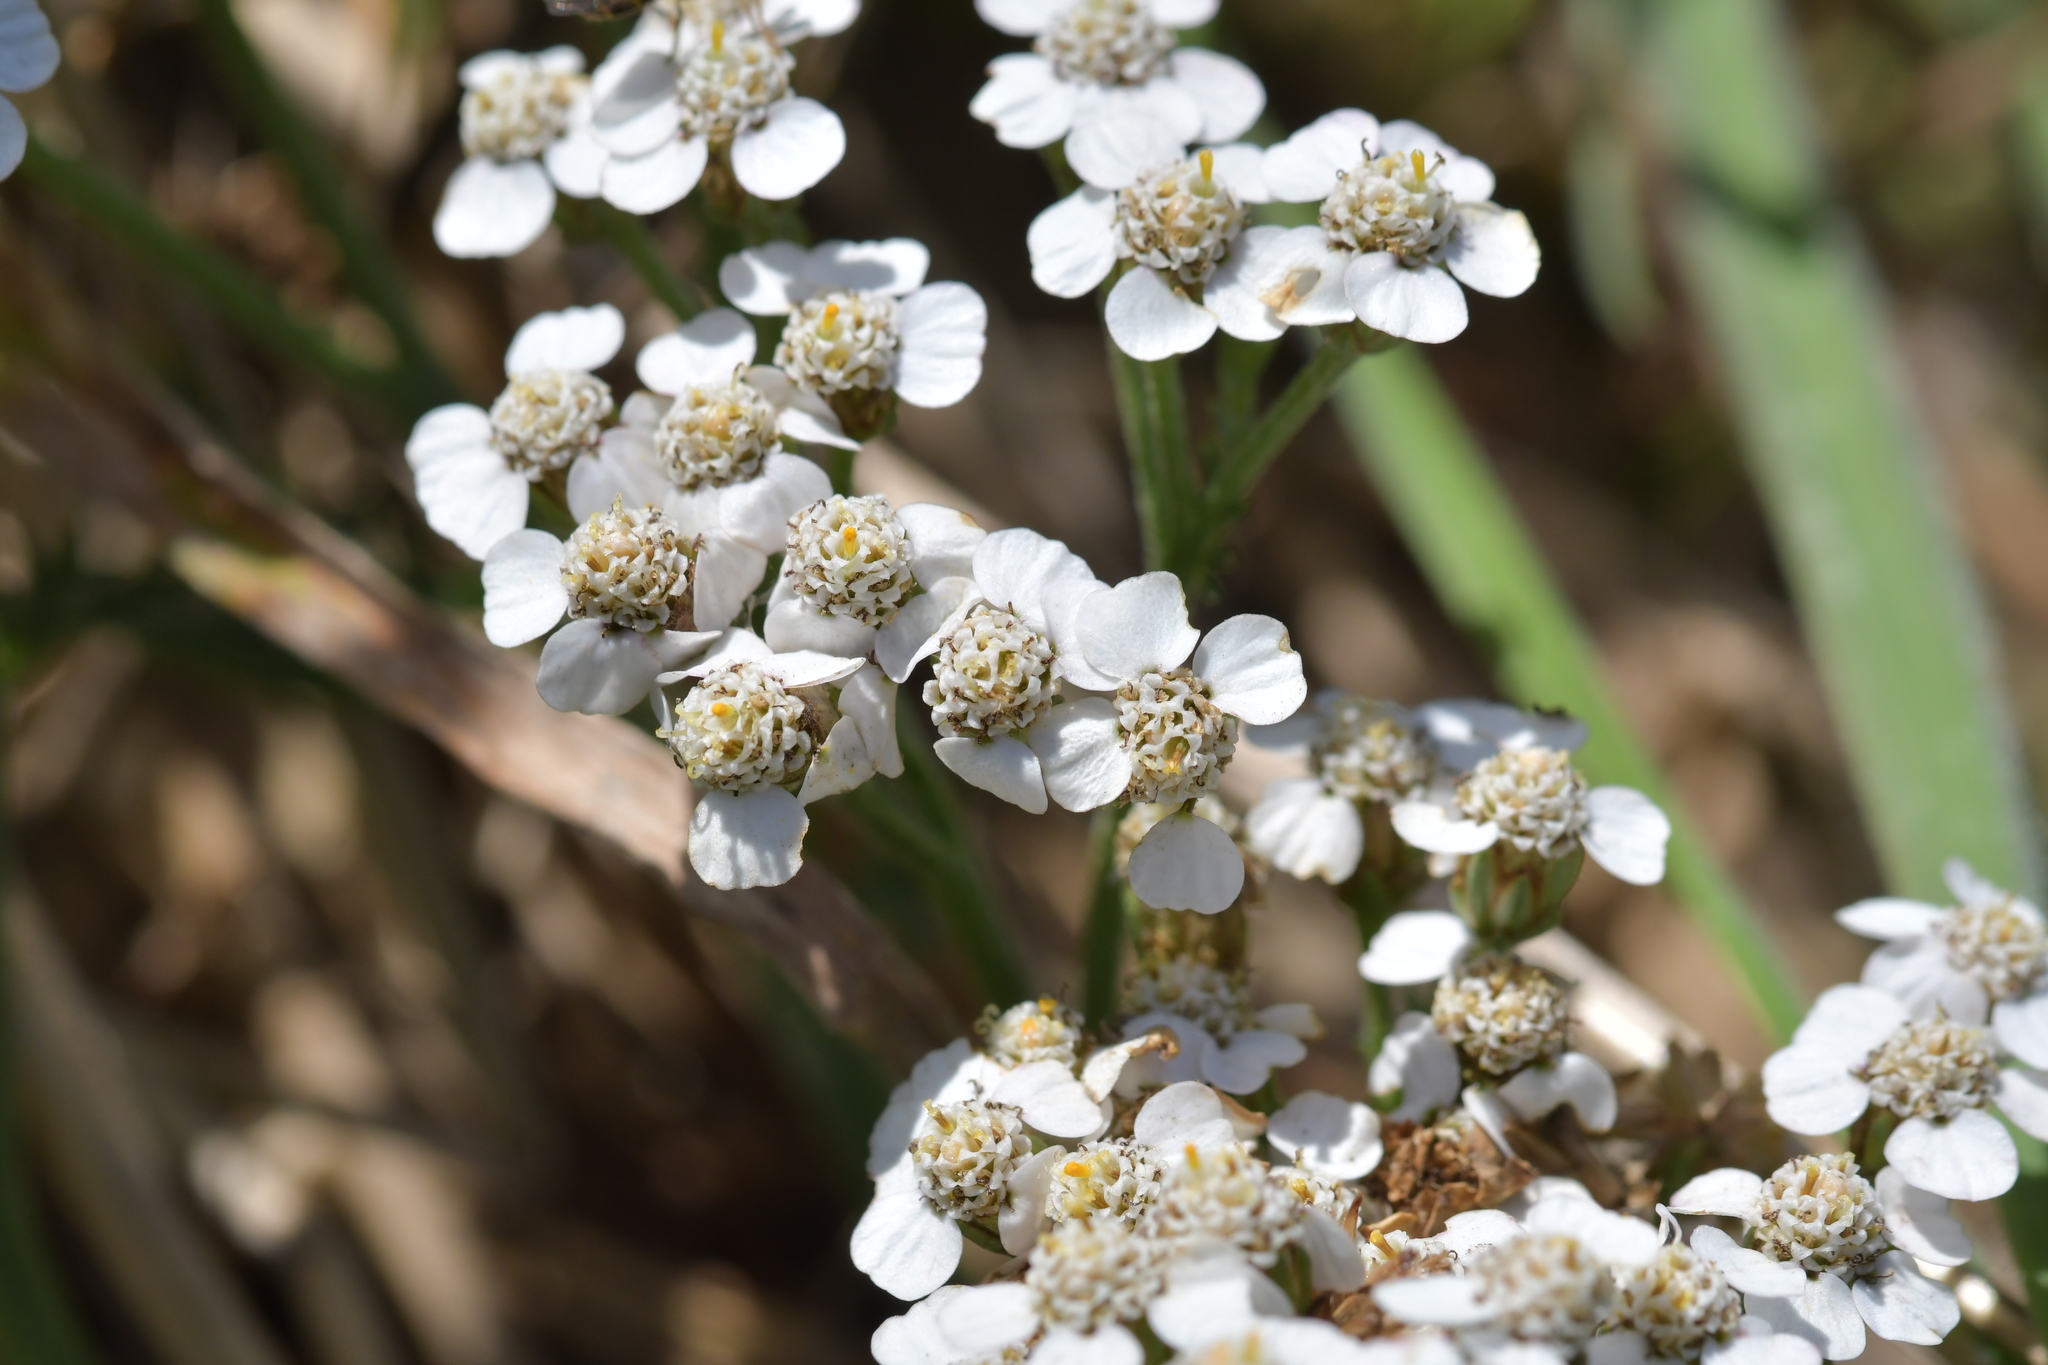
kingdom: Plantae
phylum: Tracheophyta
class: Magnoliopsida
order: Asterales
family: Asteraceae
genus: Achillea
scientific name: Achillea millefolium
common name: Yarrow
